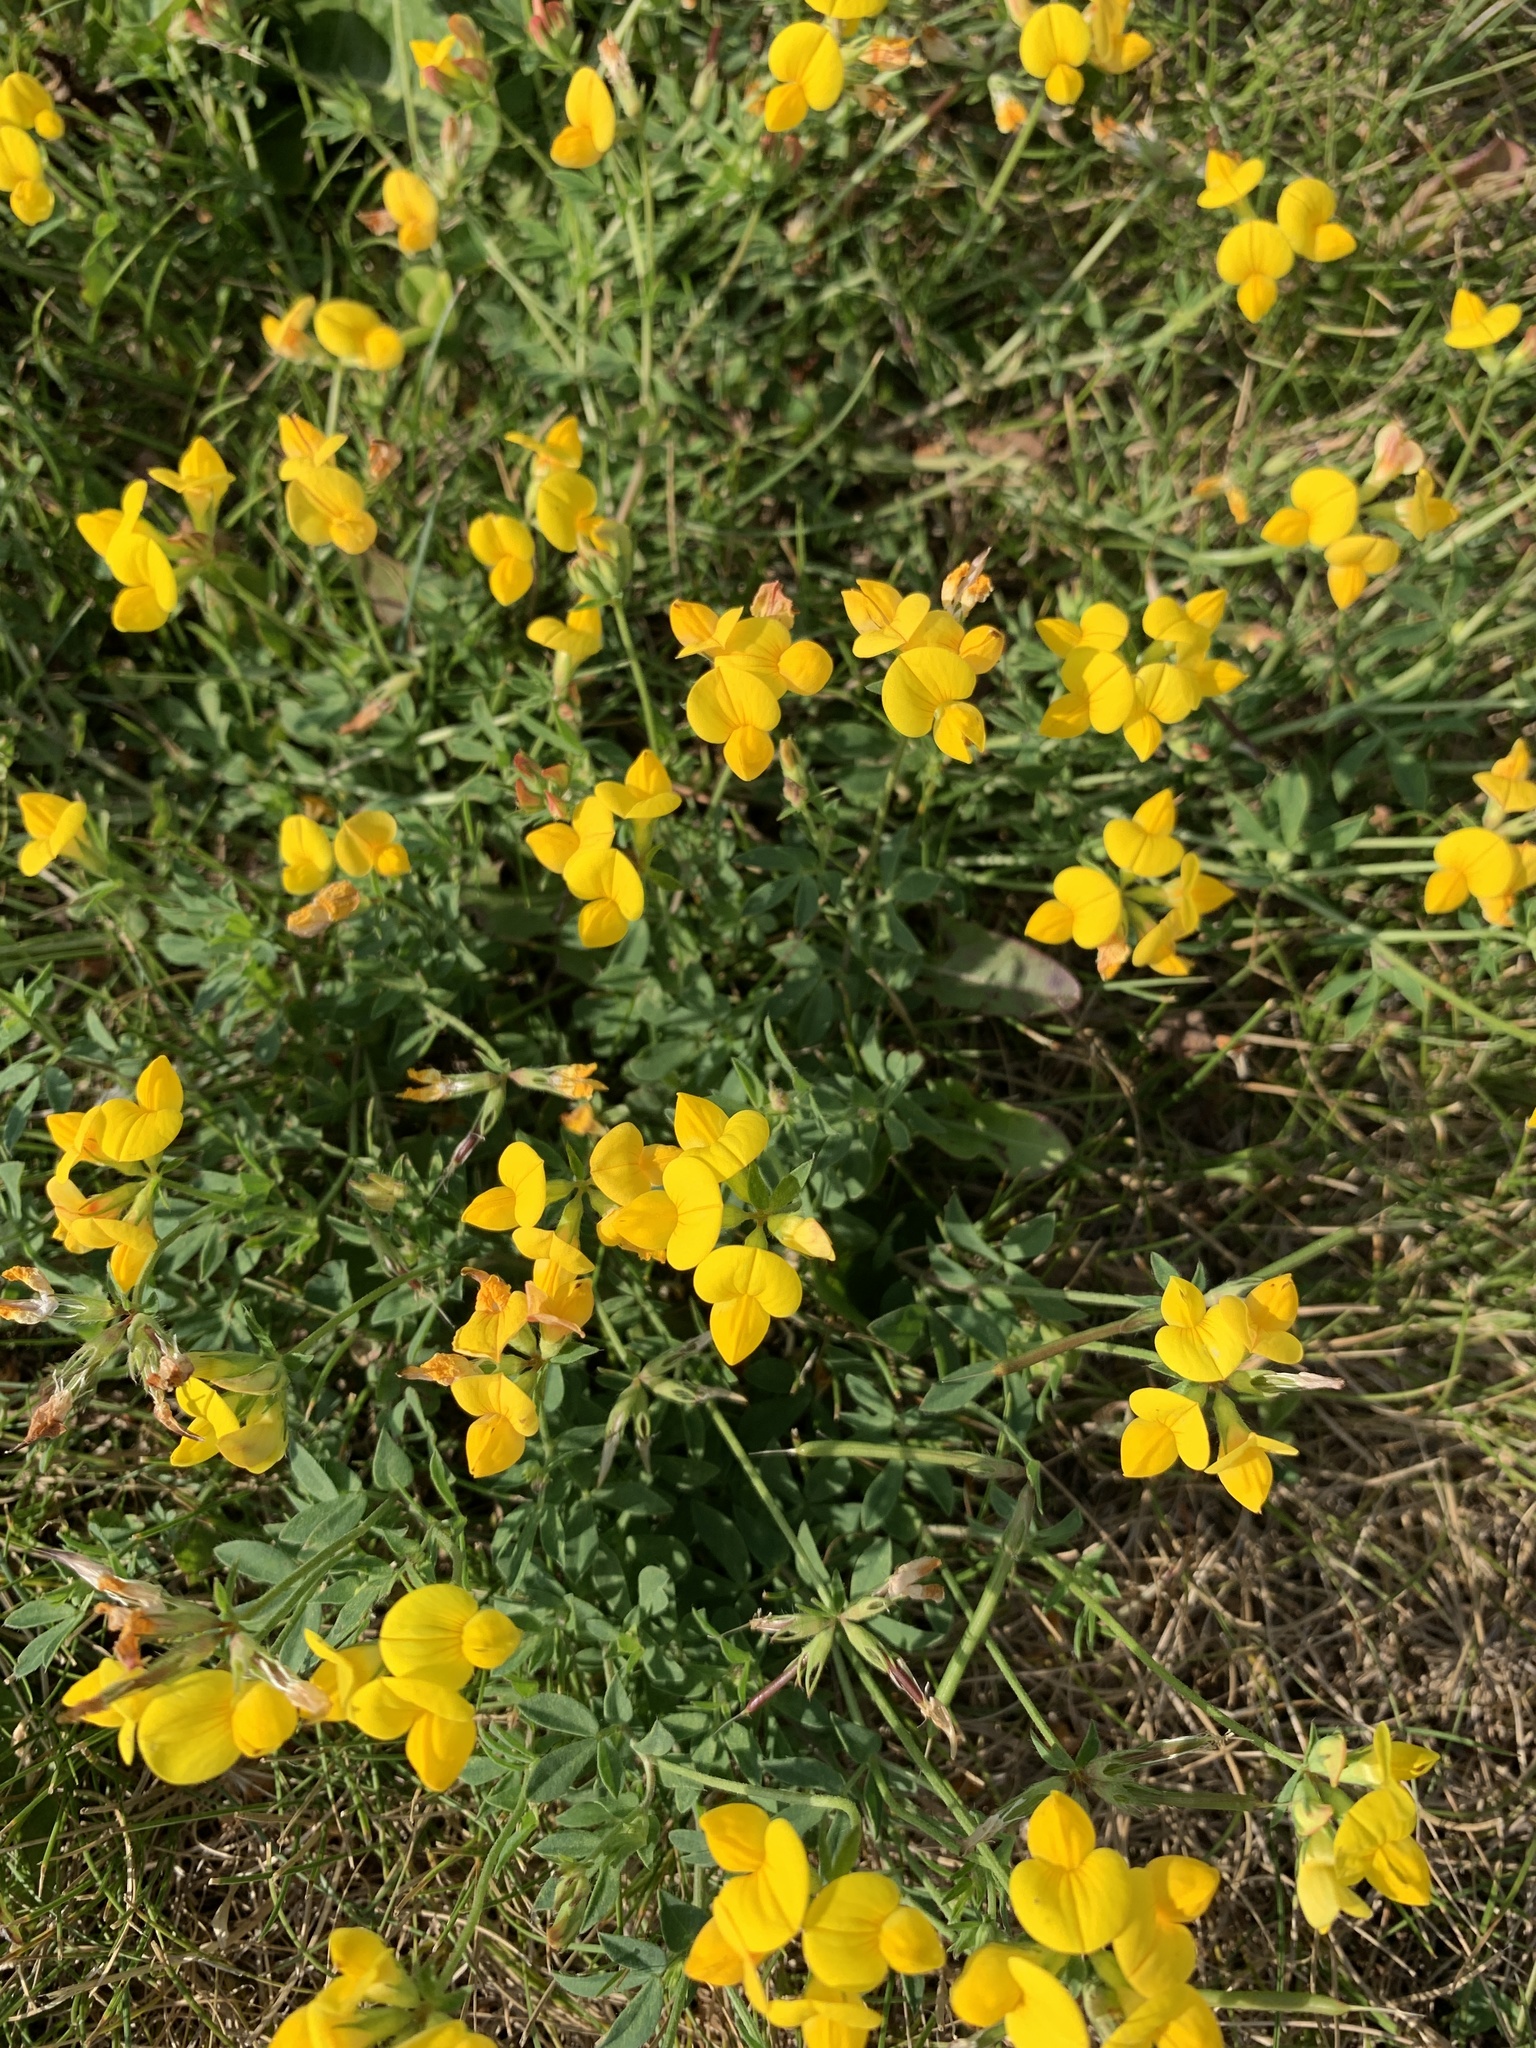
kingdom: Plantae
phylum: Tracheophyta
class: Magnoliopsida
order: Fabales
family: Fabaceae
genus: Lotus
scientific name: Lotus corniculatus
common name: Common bird's-foot-trefoil
